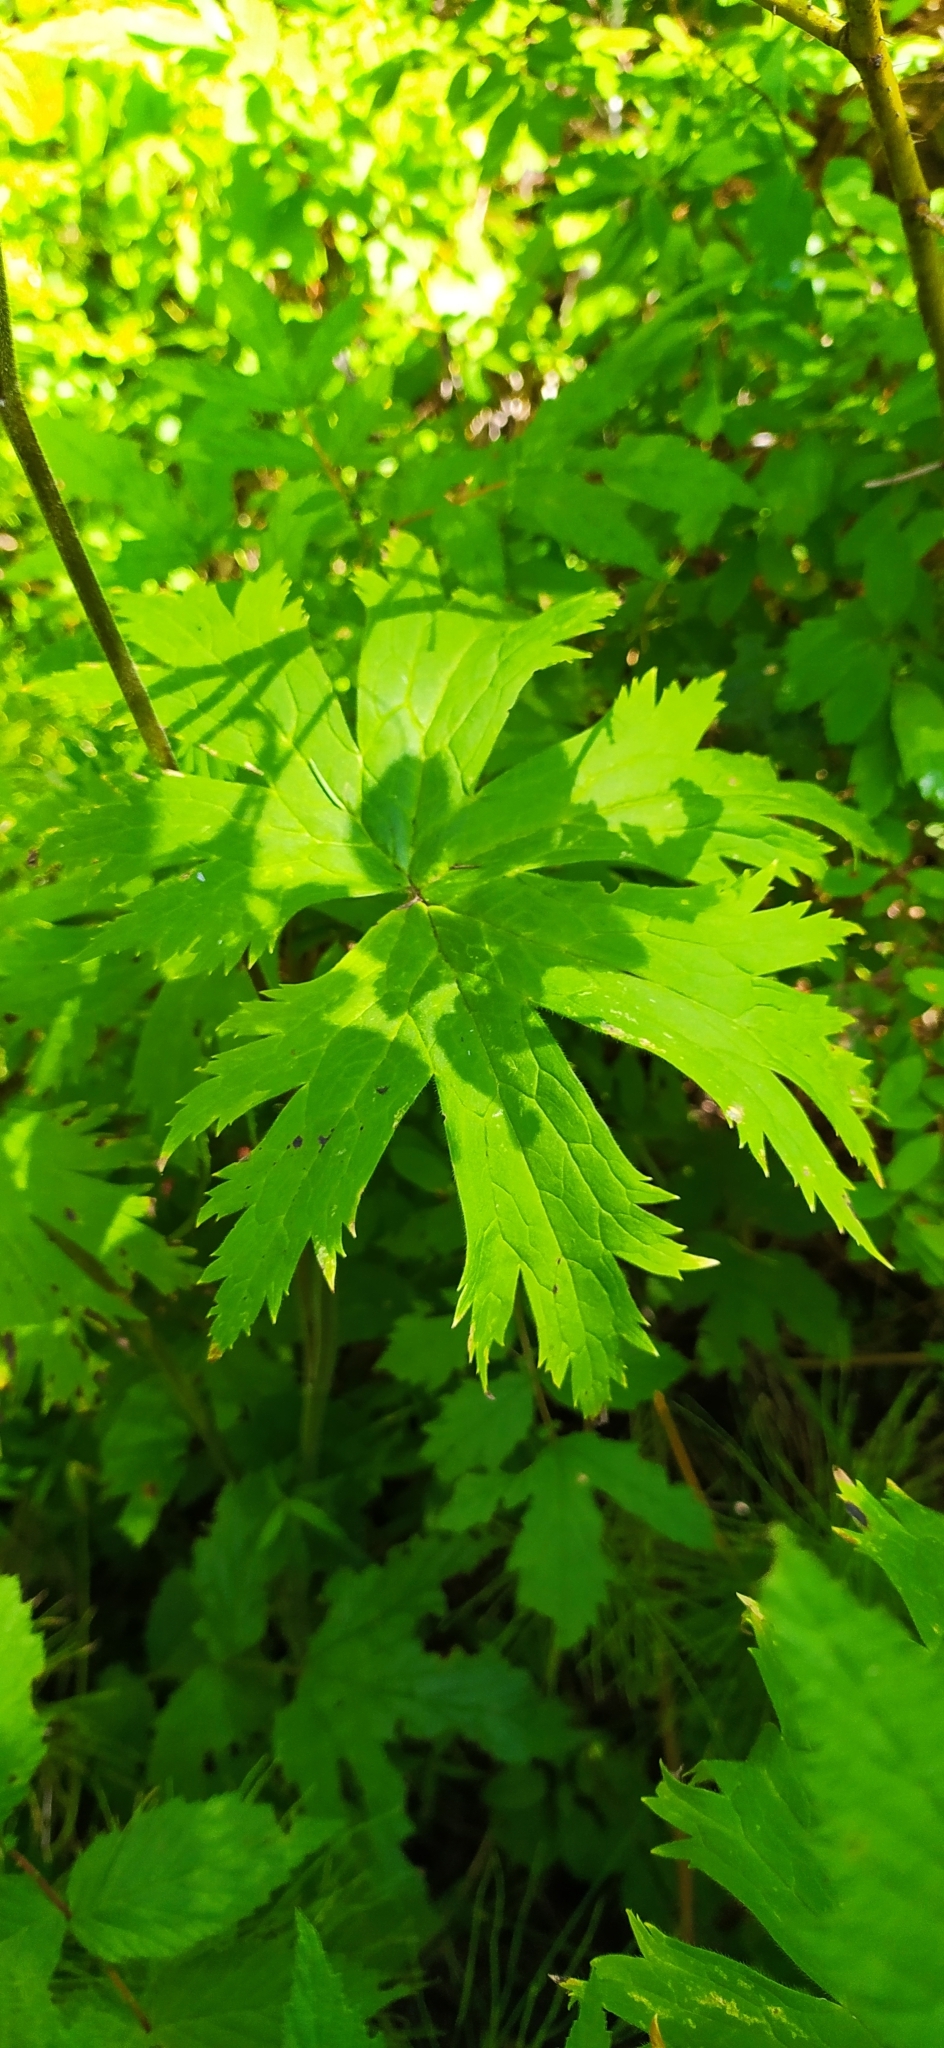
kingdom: Plantae
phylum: Tracheophyta
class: Magnoliopsida
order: Ranunculales
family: Ranunculaceae
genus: Aconitum
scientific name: Aconitum septentrionale
